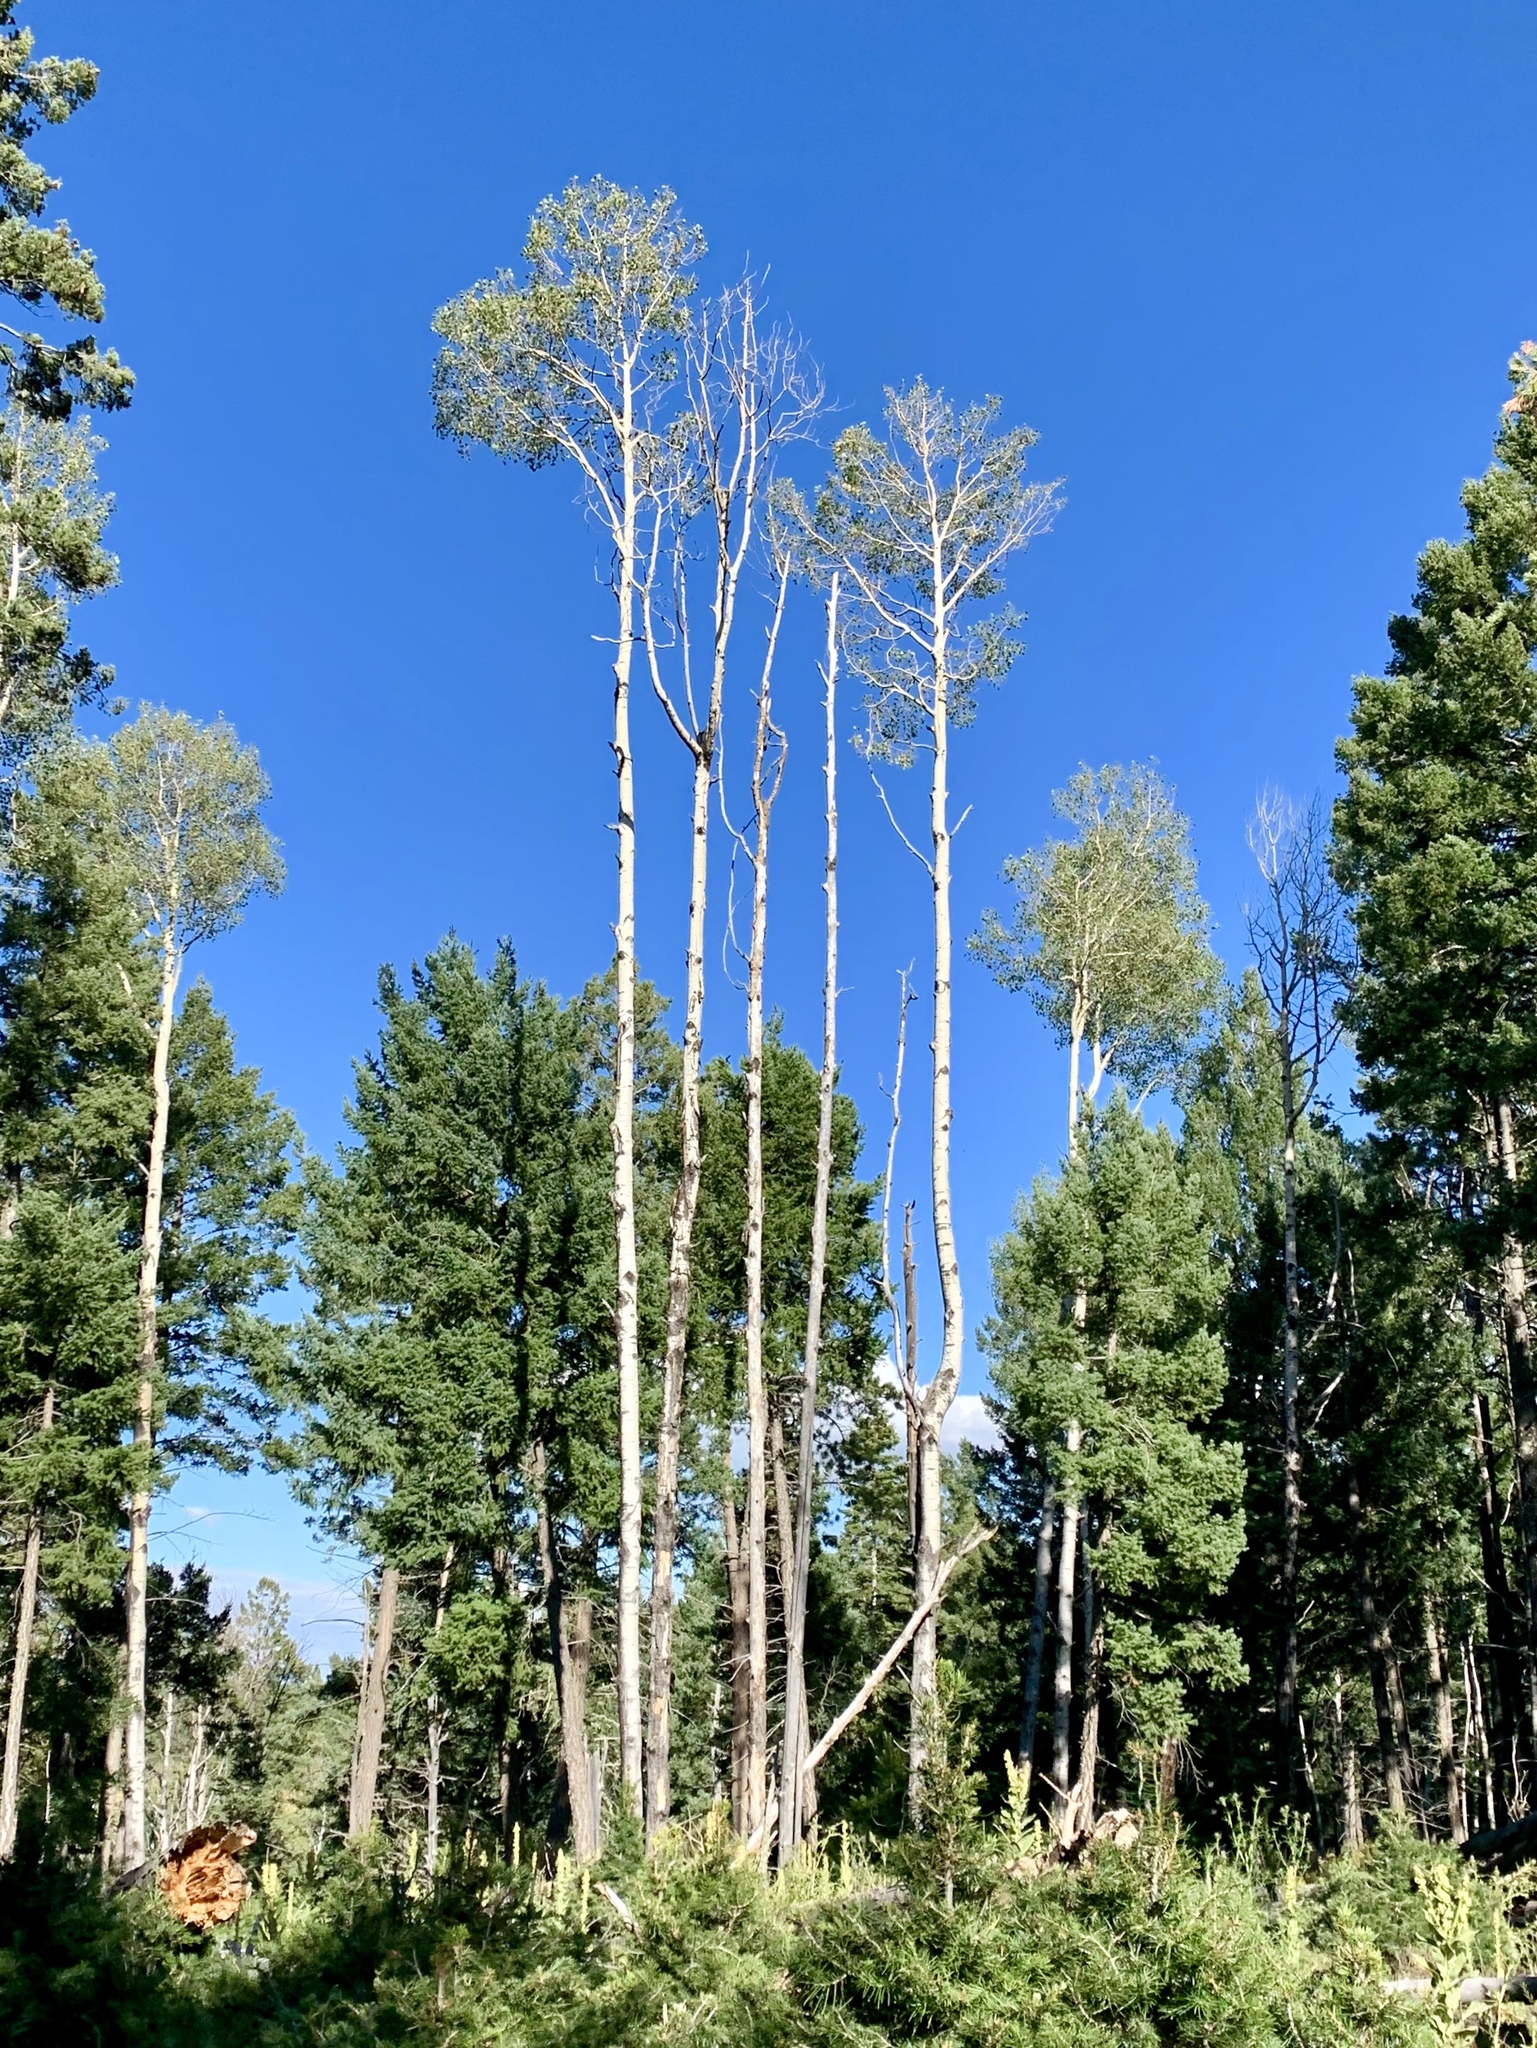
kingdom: Plantae
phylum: Tracheophyta
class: Magnoliopsida
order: Malpighiales
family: Salicaceae
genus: Populus
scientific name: Populus tremuloides
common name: Quaking aspen
